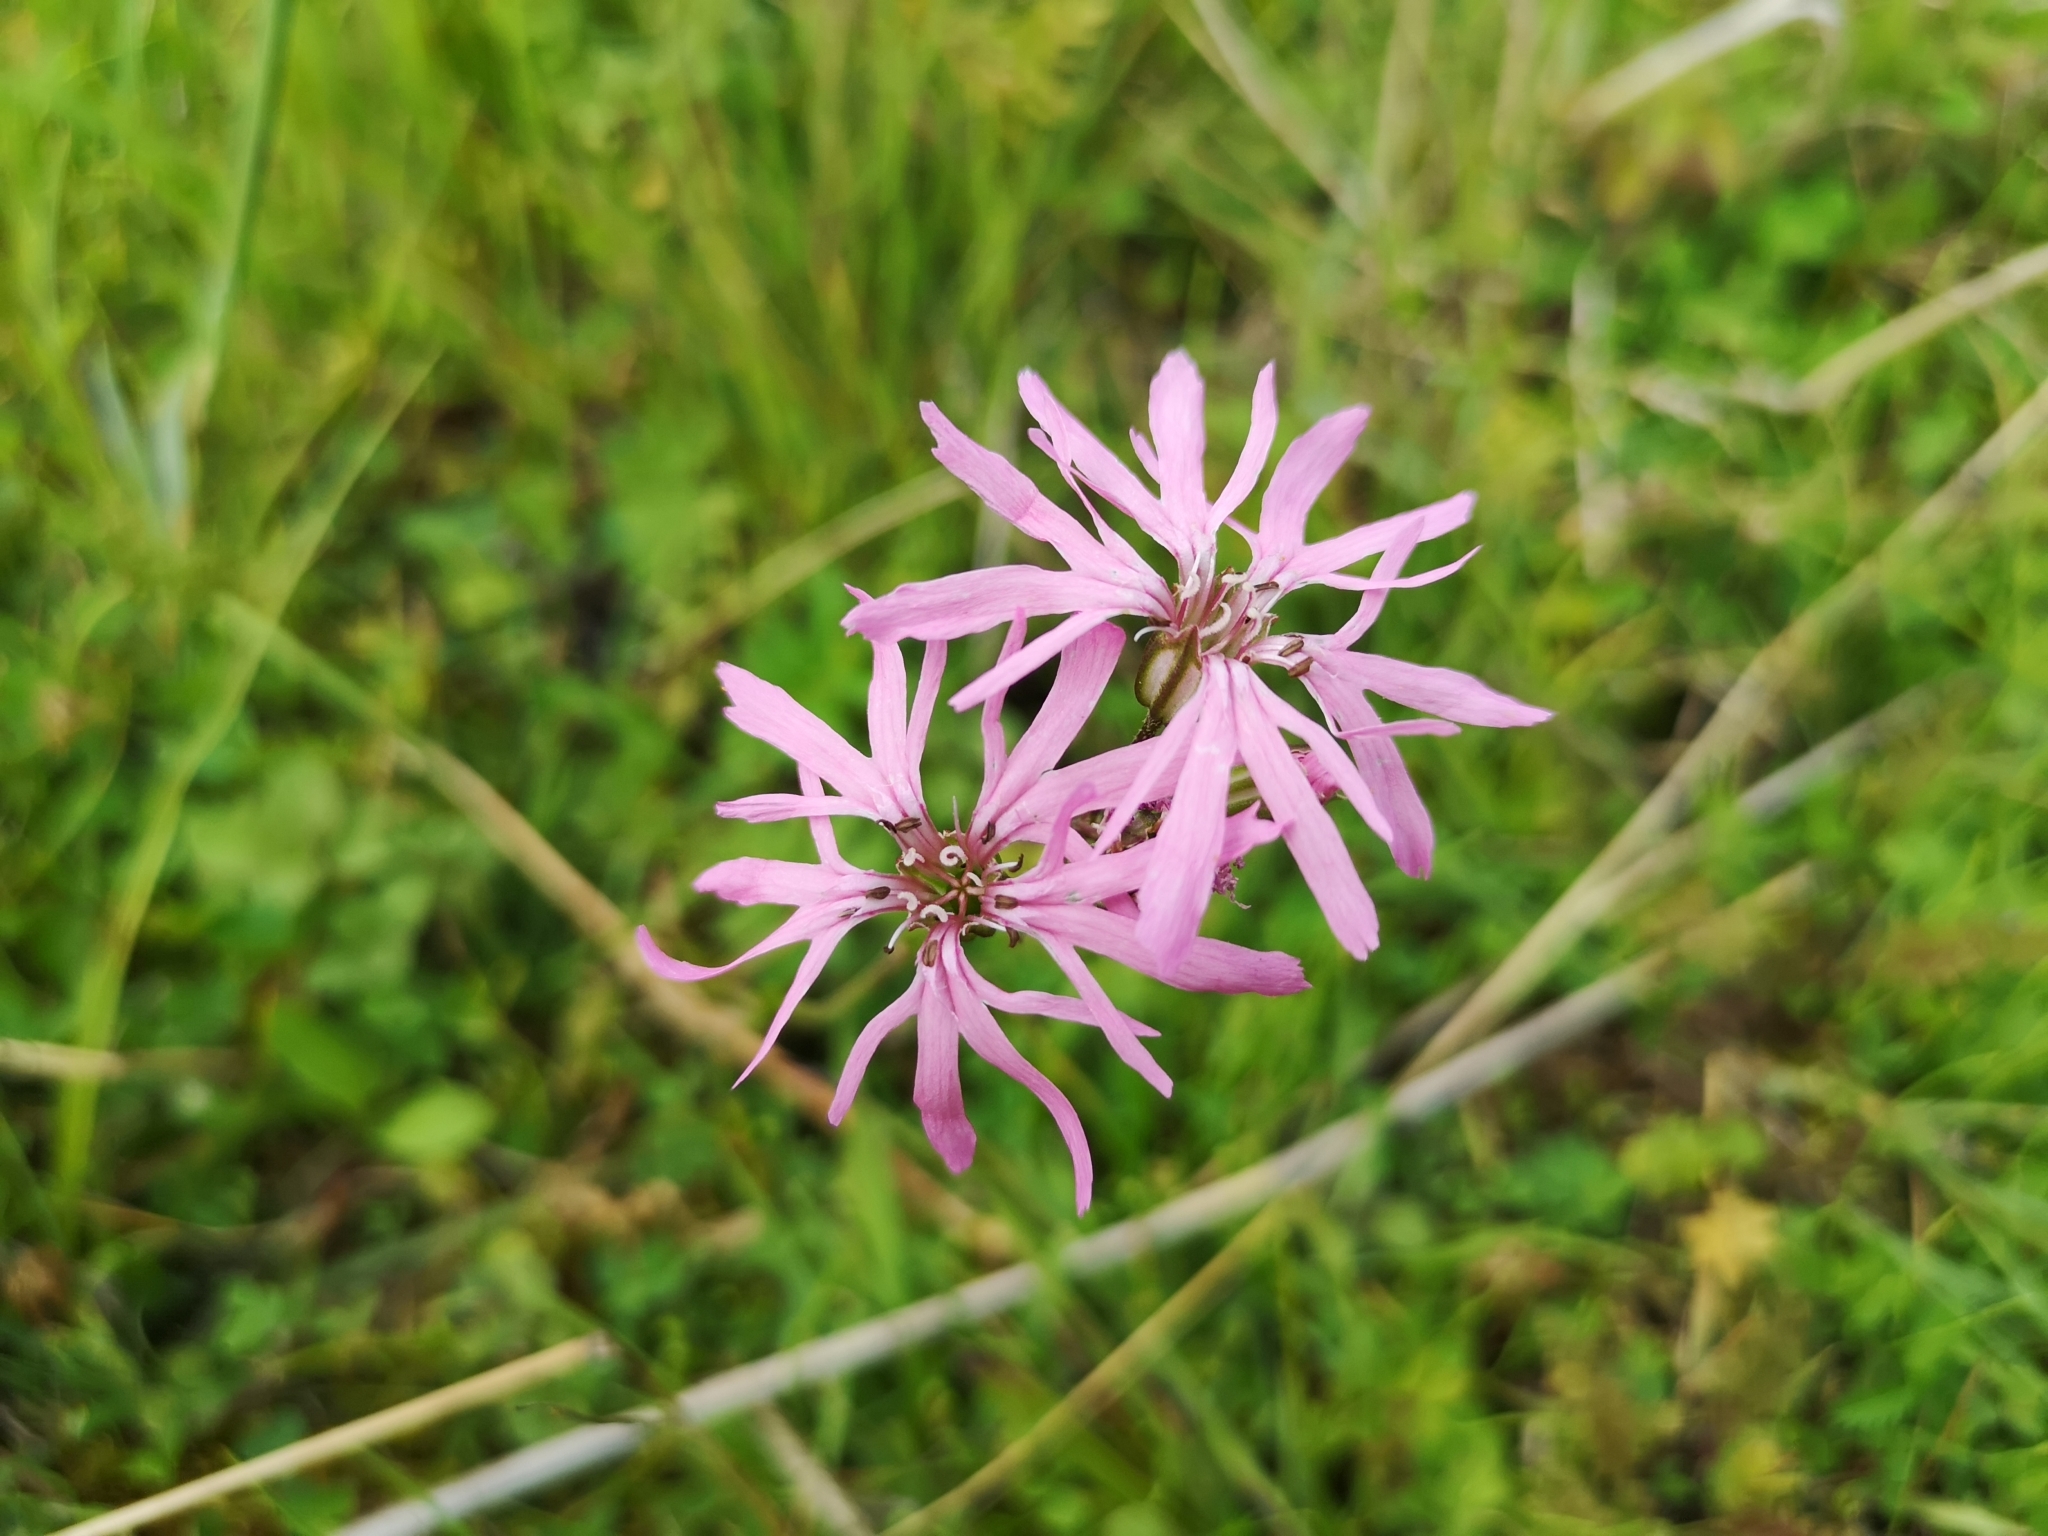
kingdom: Plantae
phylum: Tracheophyta
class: Magnoliopsida
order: Caryophyllales
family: Caryophyllaceae
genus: Silene
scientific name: Silene flos-cuculi
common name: Ragged-robin
